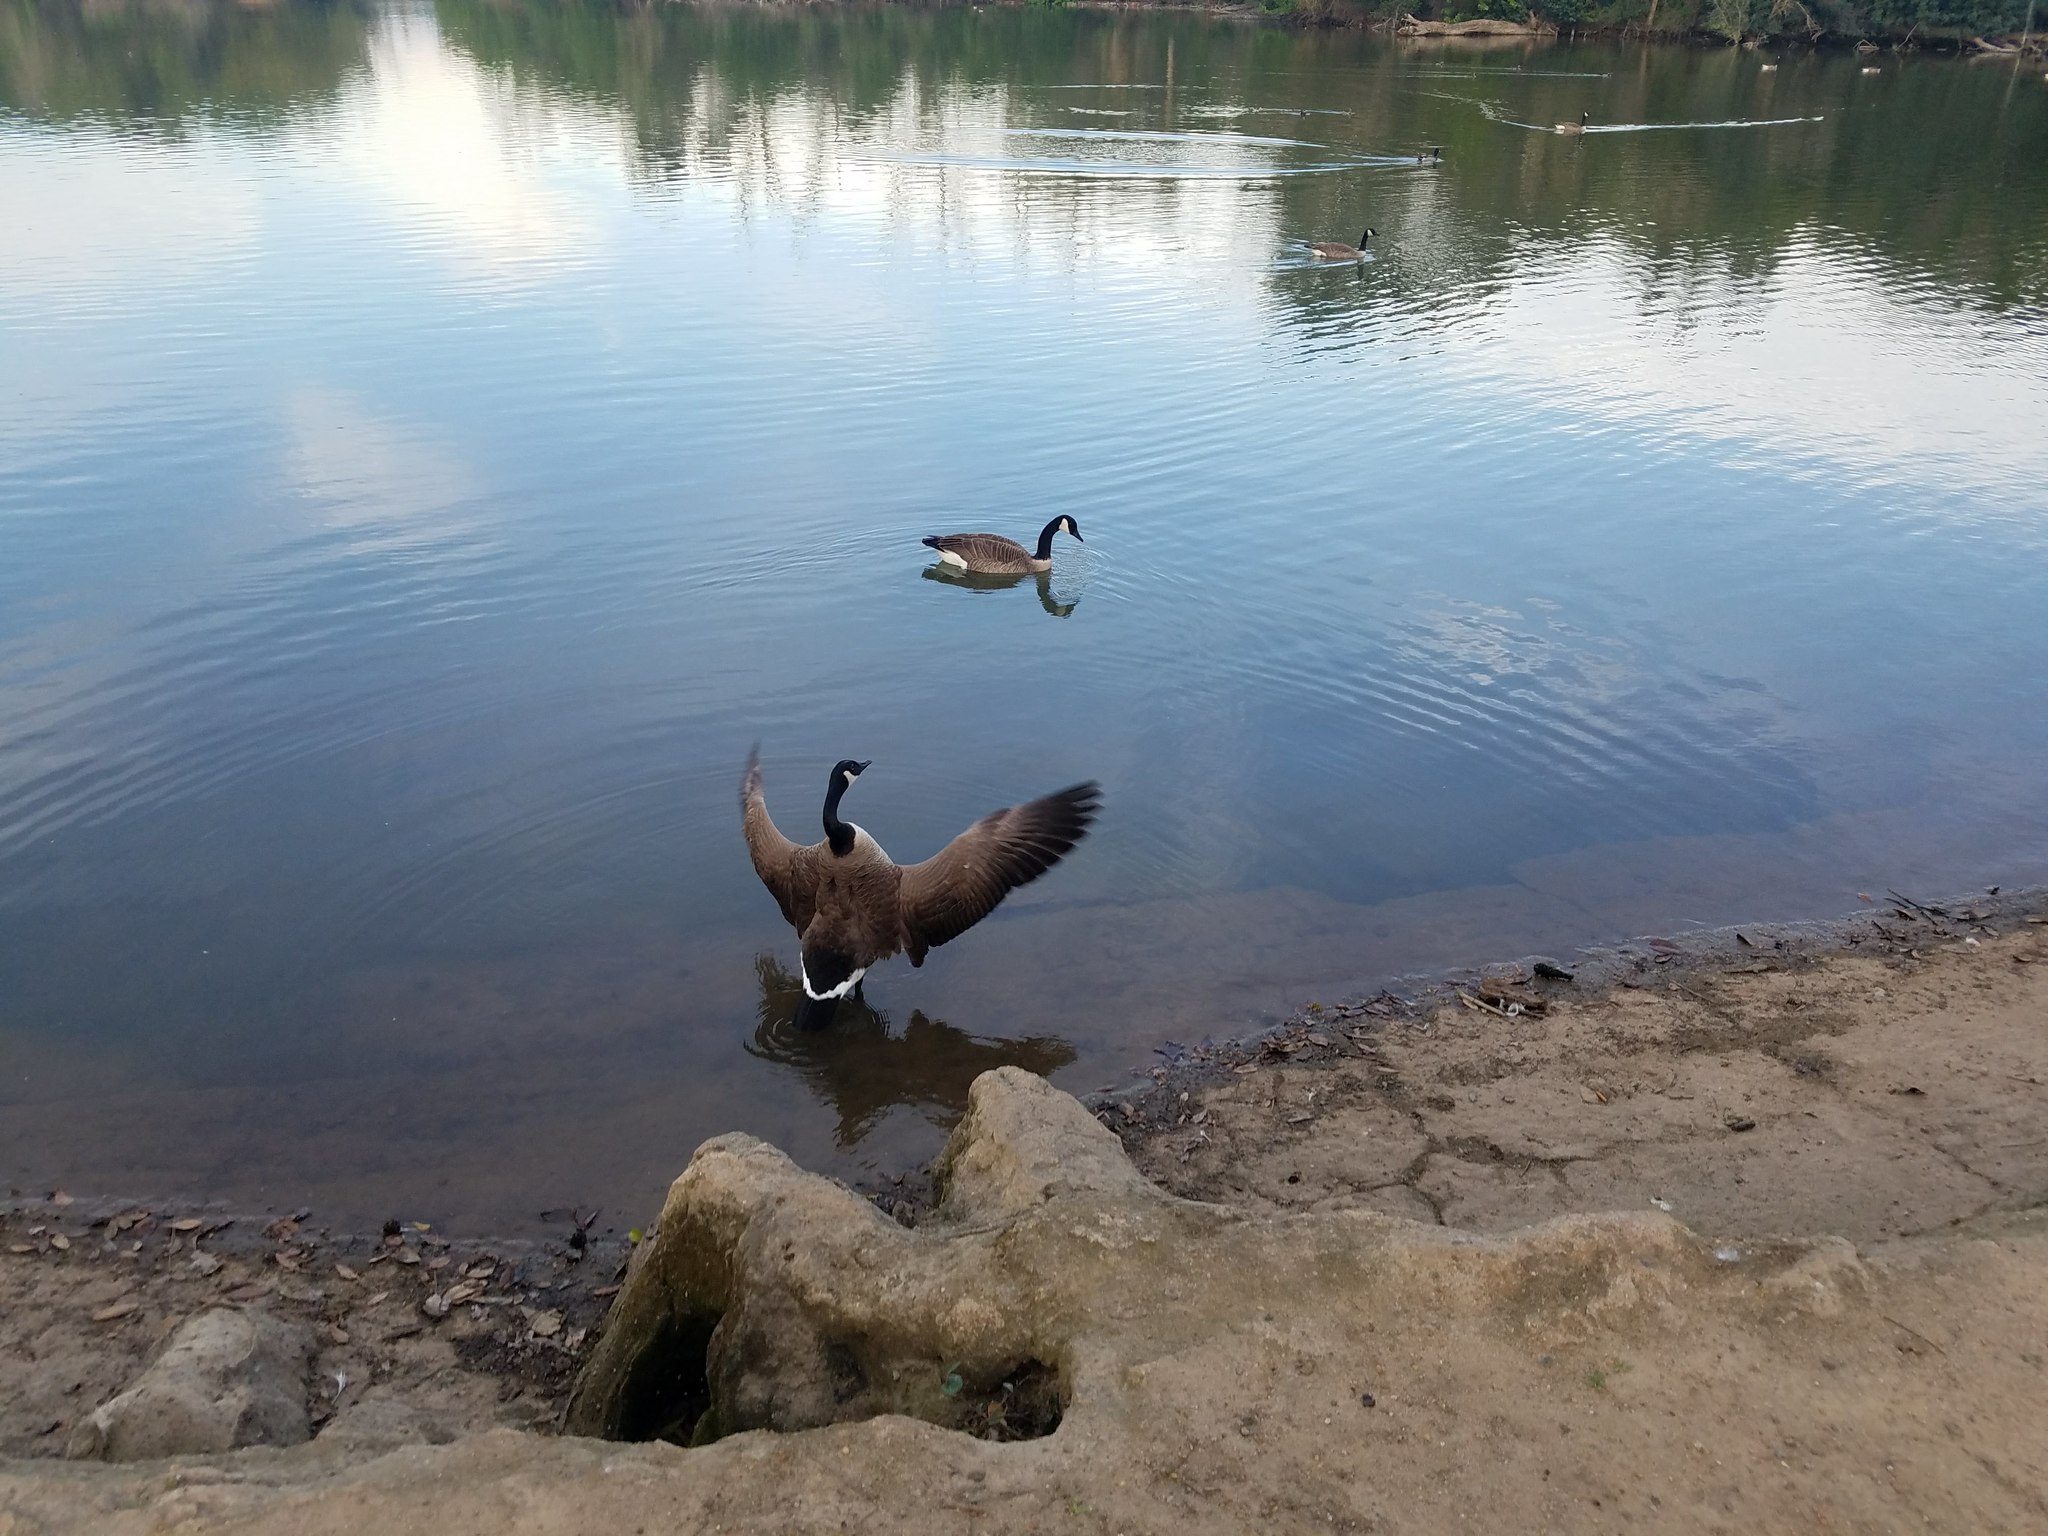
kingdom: Animalia
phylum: Chordata
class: Aves
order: Anseriformes
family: Anatidae
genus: Branta
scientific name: Branta canadensis
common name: Canada goose
